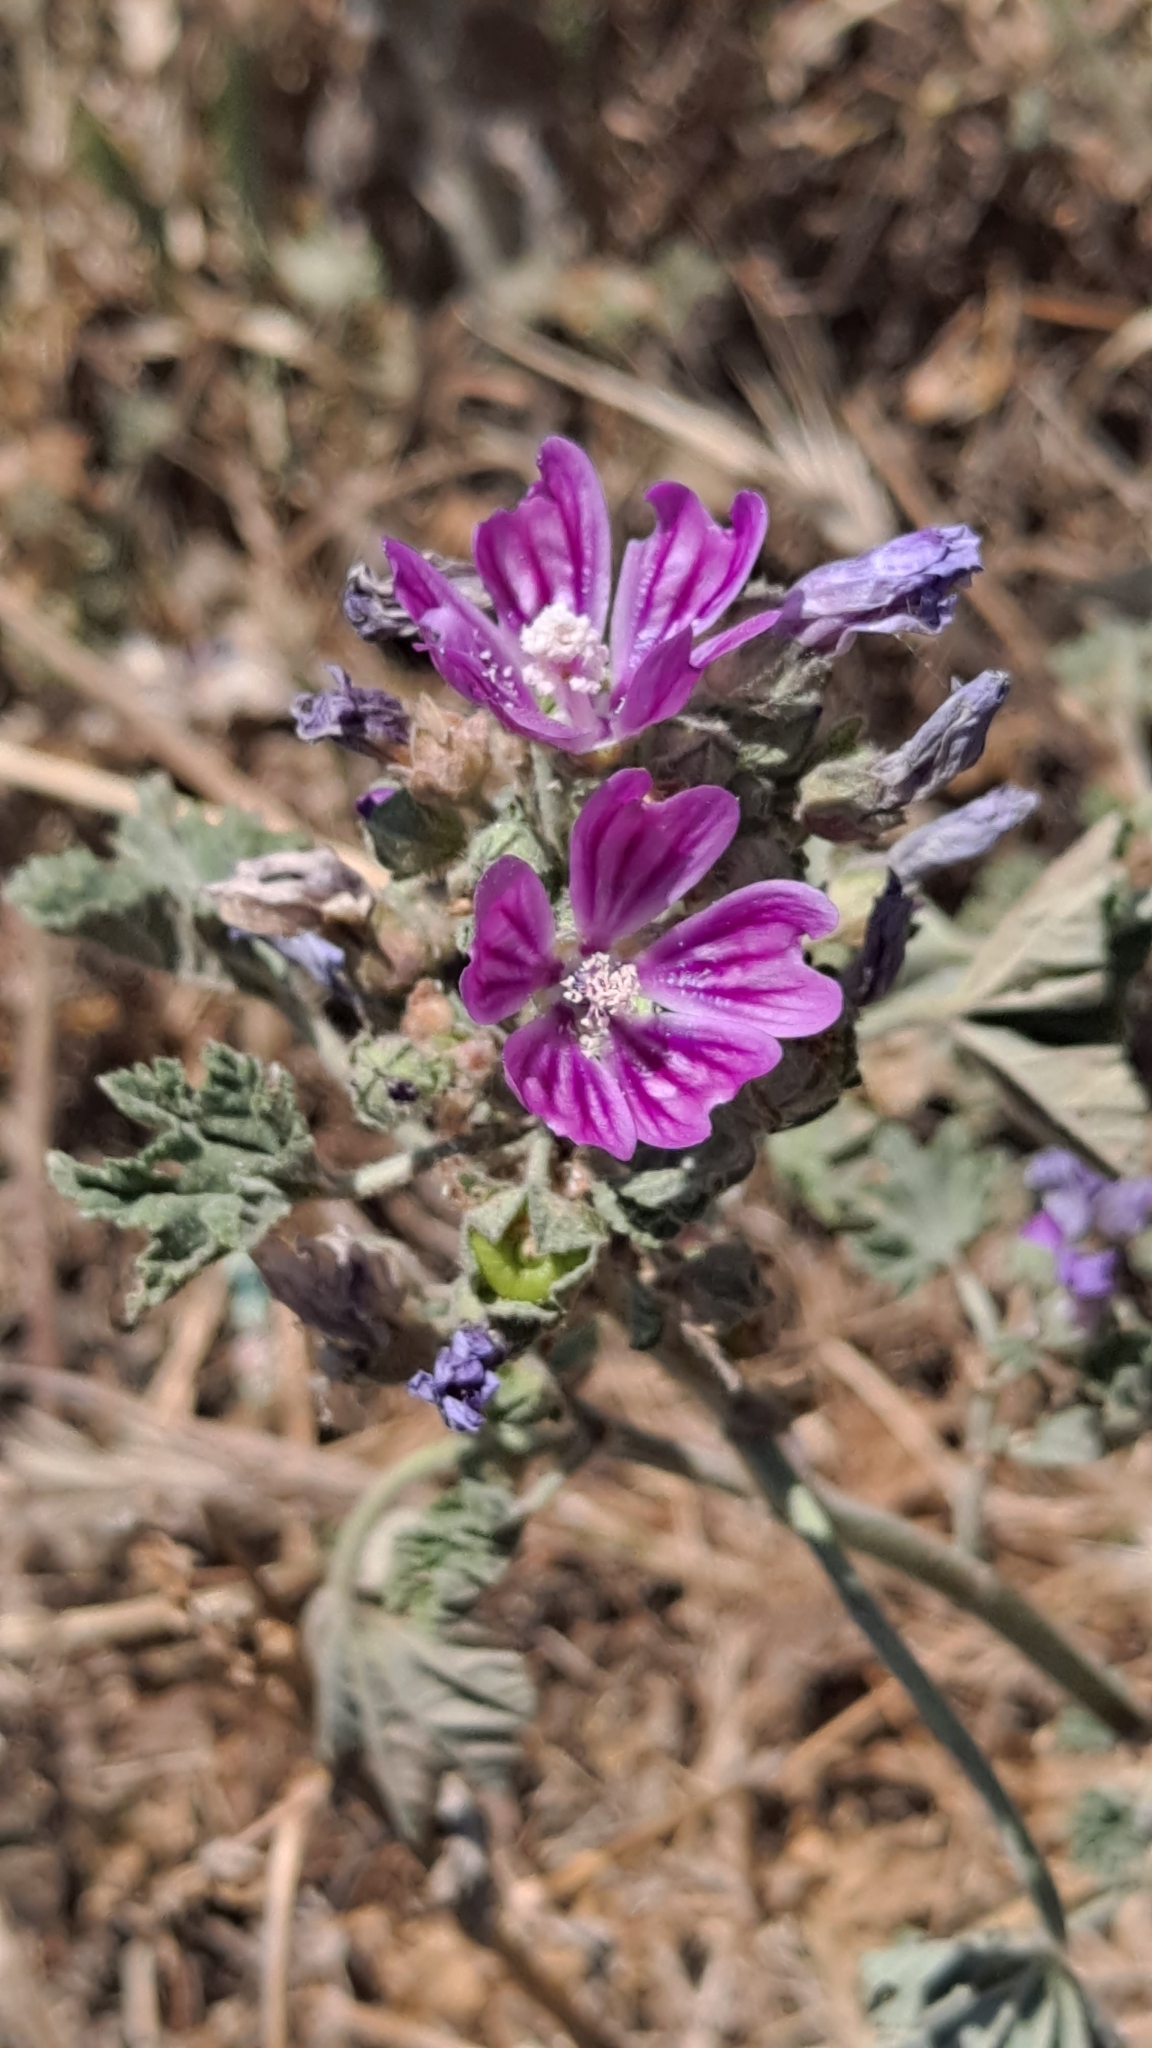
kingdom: Plantae
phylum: Tracheophyta
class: Magnoliopsida
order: Malvales
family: Malvaceae
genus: Malva
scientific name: Malva sylvestris
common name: Common mallow
